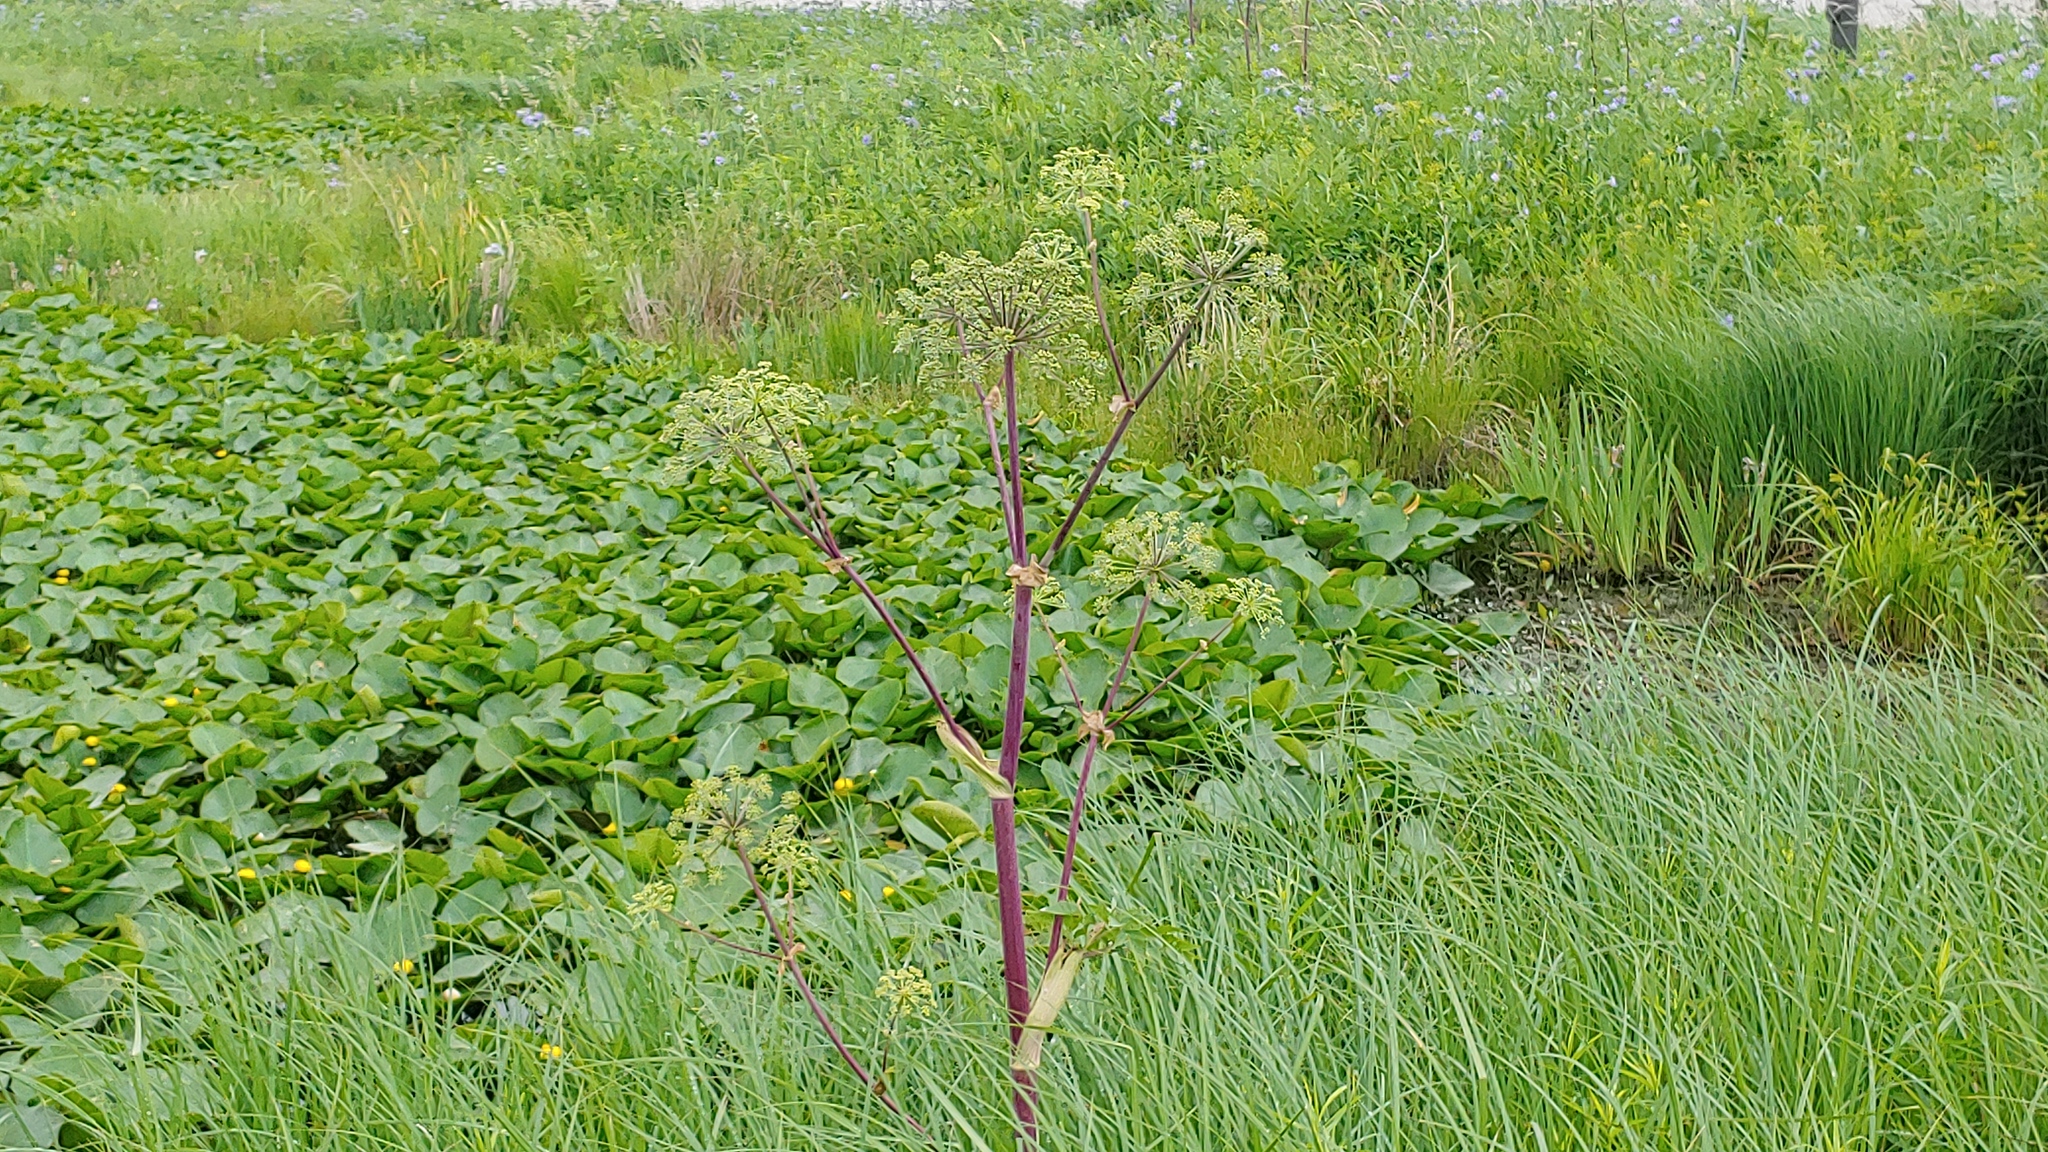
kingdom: Plantae
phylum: Tracheophyta
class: Magnoliopsida
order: Apiales
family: Apiaceae
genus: Angelica
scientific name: Angelica atropurpurea
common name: Great angelica
